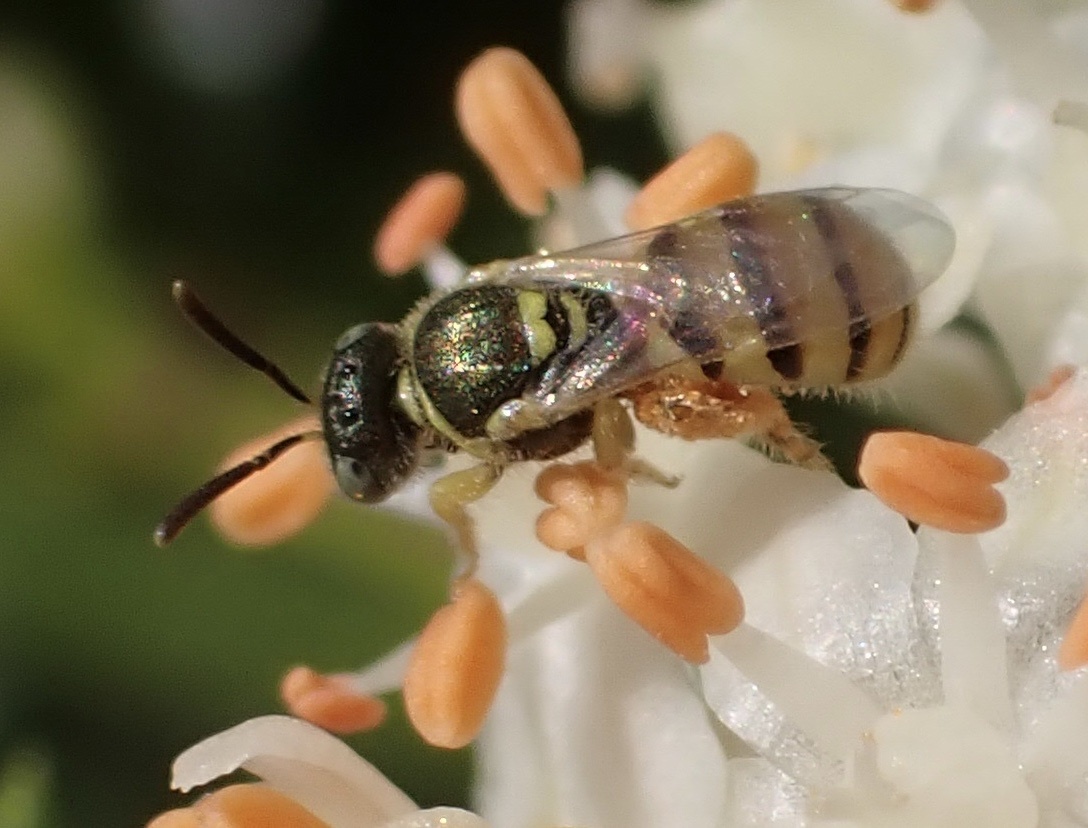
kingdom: Animalia
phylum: Arthropoda
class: Insecta
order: Hymenoptera
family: Halictidae
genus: Nomioides
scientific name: Nomioides minutissimus
